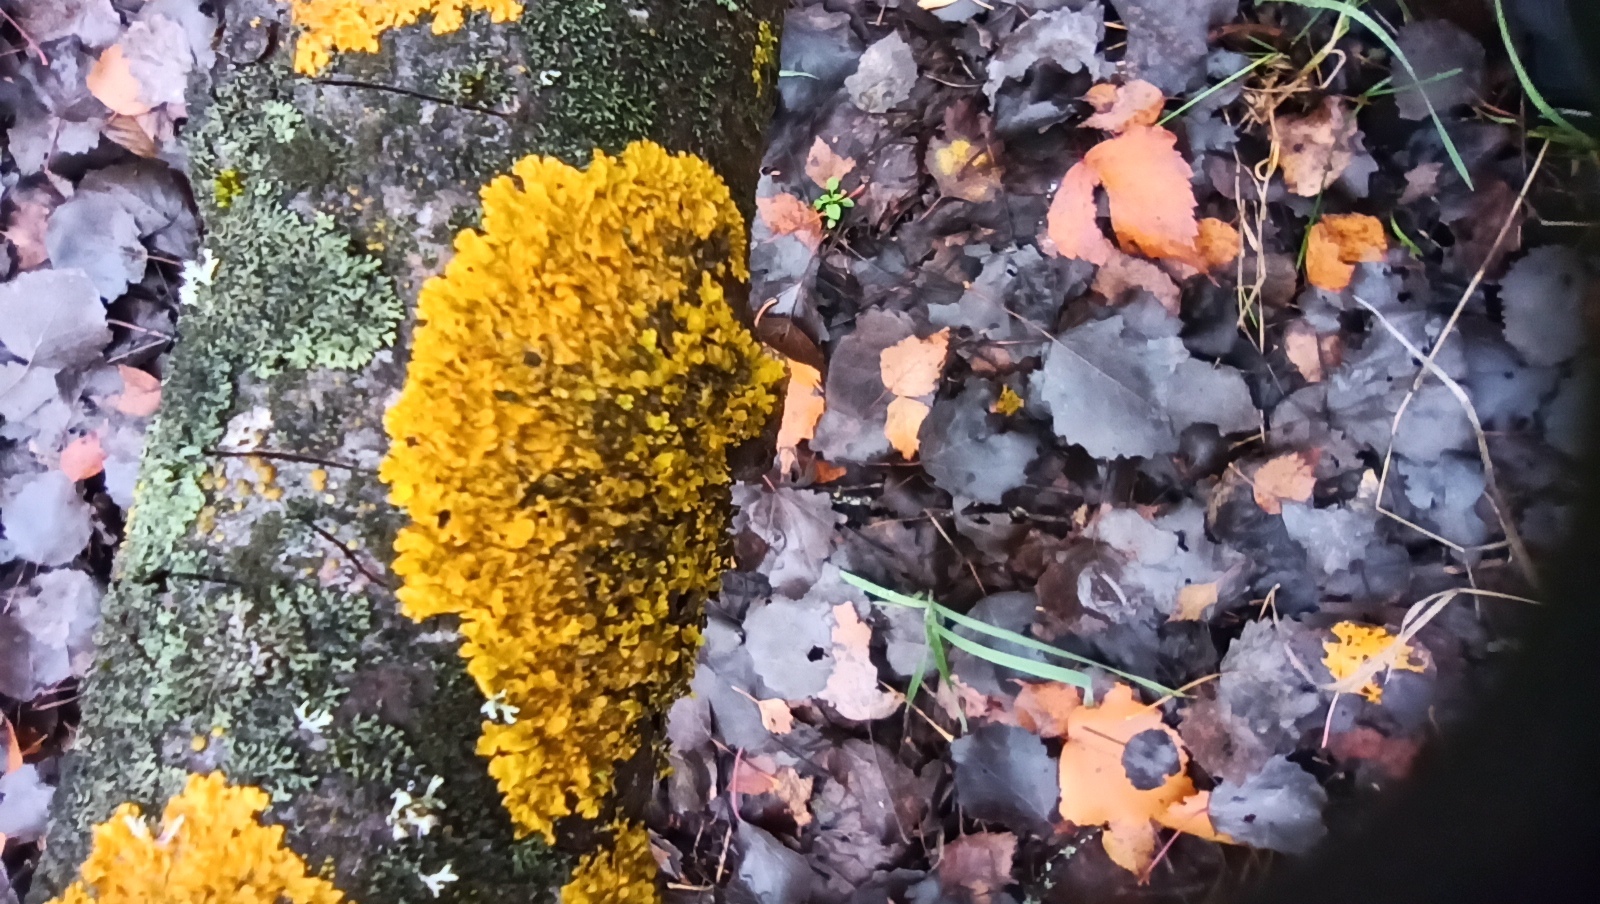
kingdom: Fungi
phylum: Ascomycota
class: Lecanoromycetes
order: Teloschistales
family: Teloschistaceae
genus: Xanthoria
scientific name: Xanthoria parietina
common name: Common orange lichen
